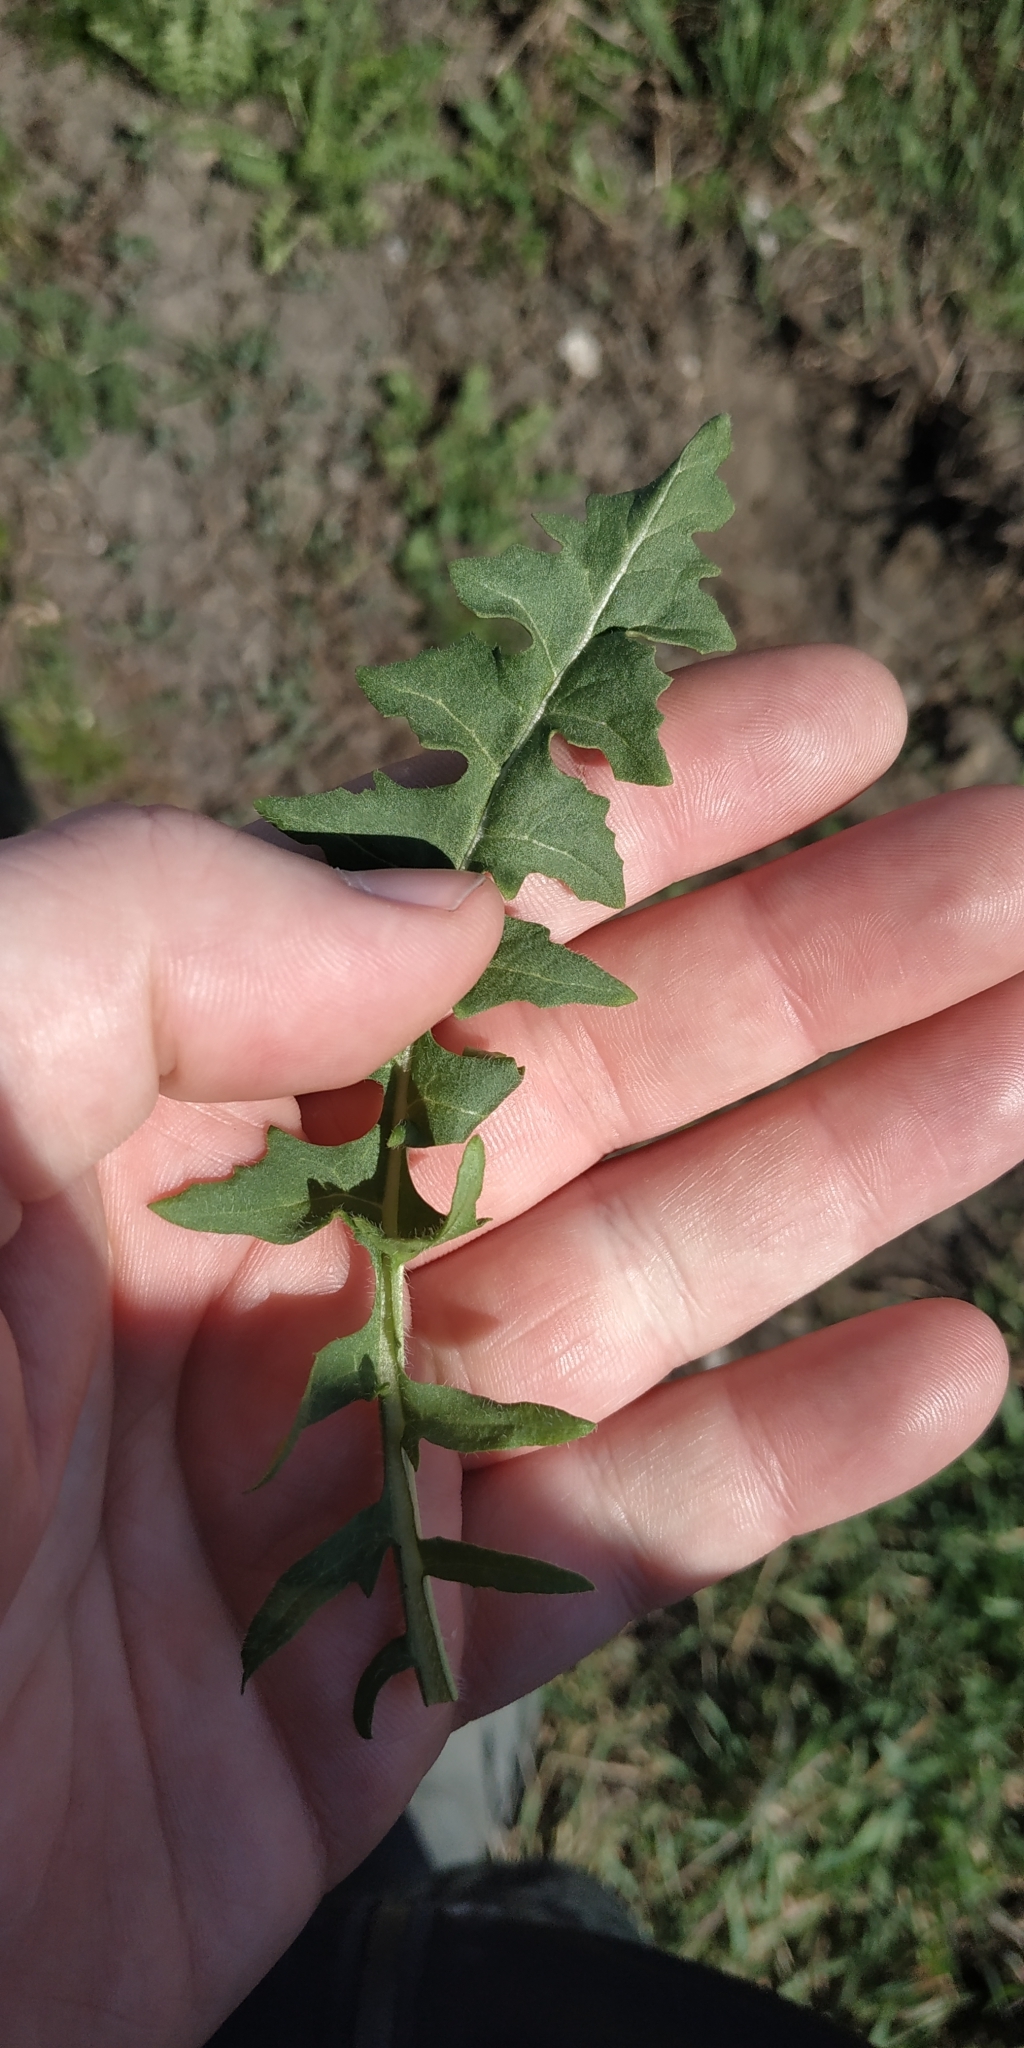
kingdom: Plantae
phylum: Tracheophyta
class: Magnoliopsida
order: Brassicales
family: Brassicaceae
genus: Sisymbrium
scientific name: Sisymbrium loeselii
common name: False london-rocket
